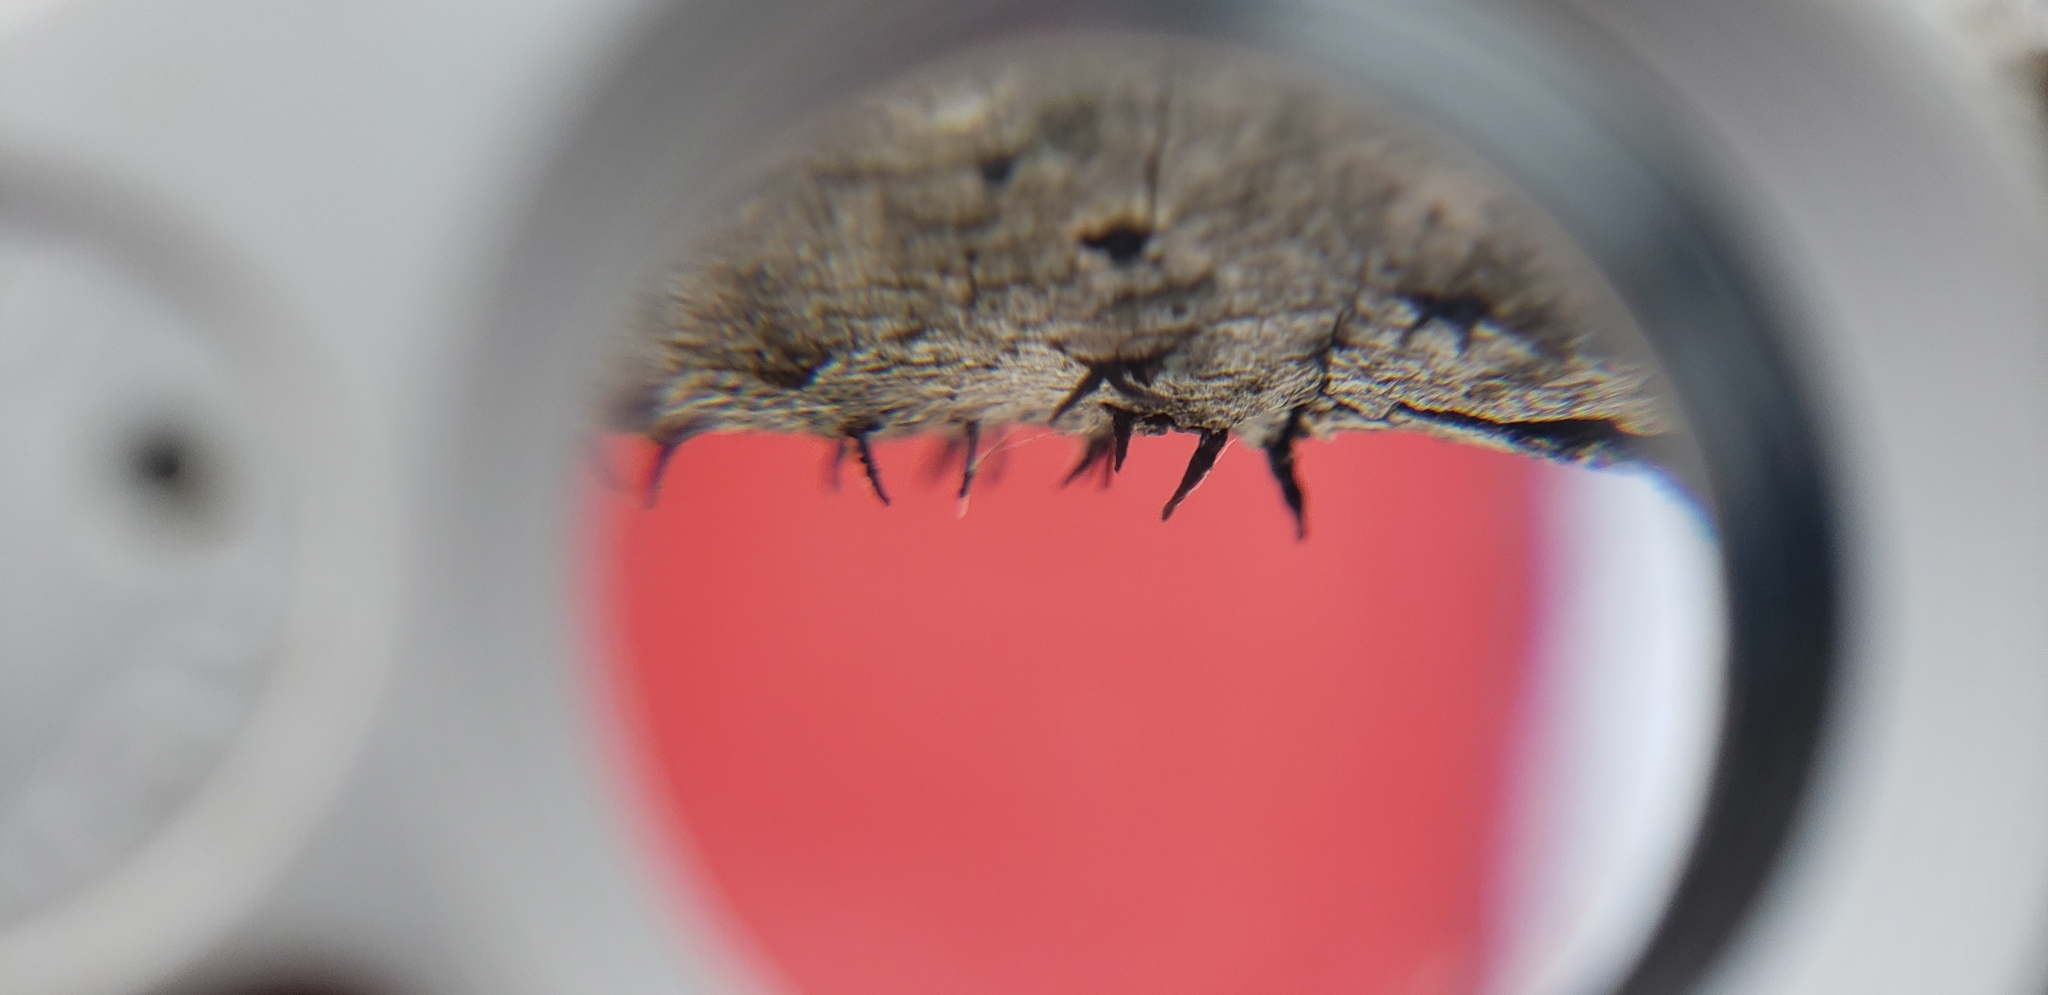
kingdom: Fungi
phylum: Ascomycota
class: Leotiomycetes
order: Leotiales
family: Tympanidaceae
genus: Durandiella
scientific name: Durandiella fraxini
